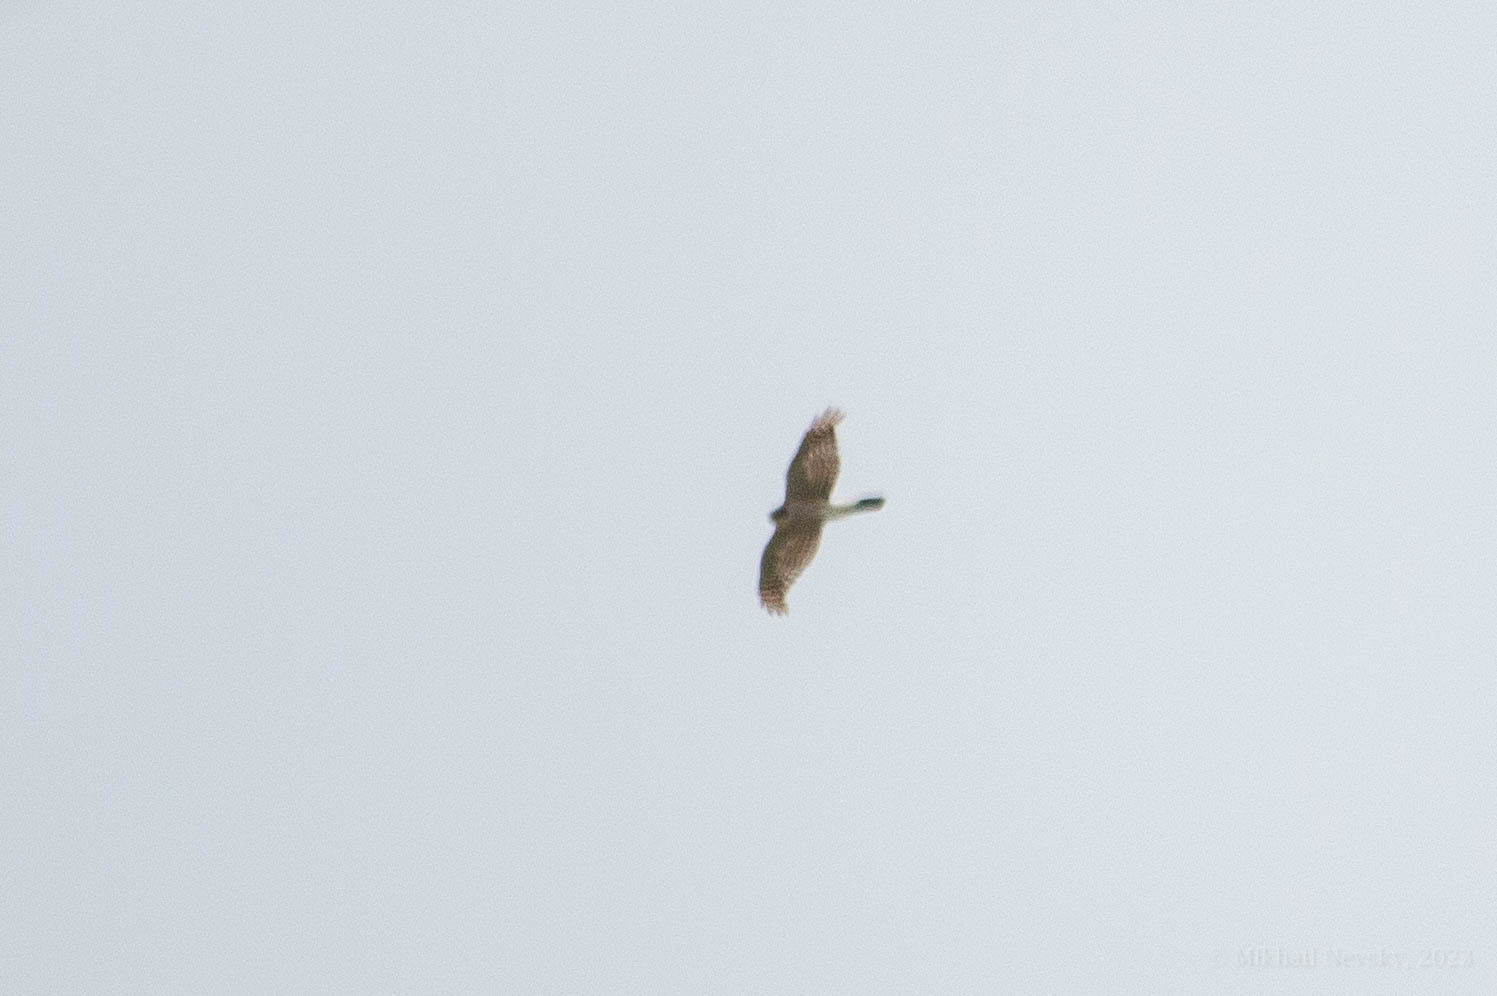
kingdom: Animalia
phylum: Chordata
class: Aves
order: Accipitriformes
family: Accipitridae
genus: Accipiter
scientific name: Accipiter nisus
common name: Eurasian sparrowhawk
